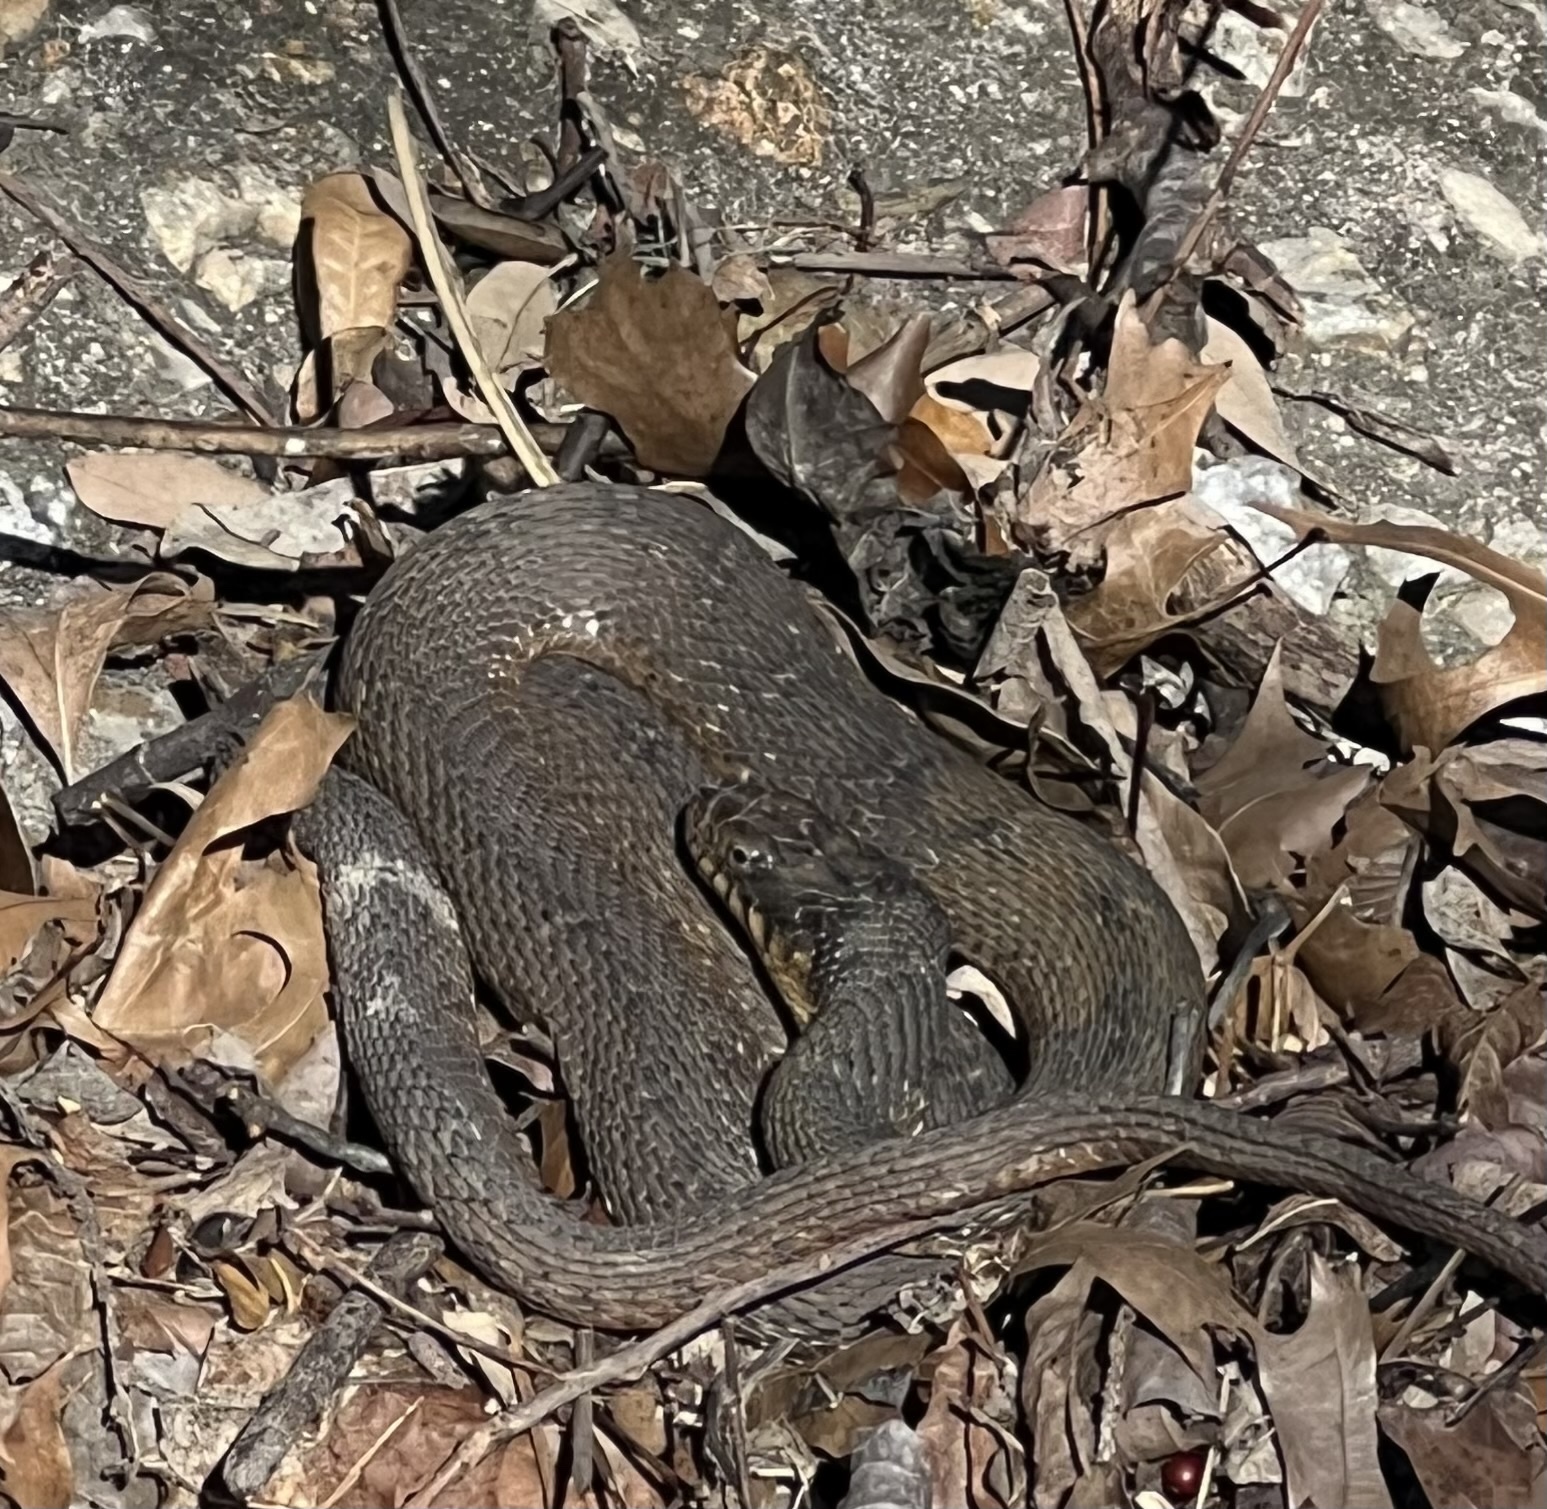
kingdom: Animalia
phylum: Chordata
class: Squamata
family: Colubridae
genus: Nerodia
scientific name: Nerodia erythrogaster
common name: Plainbelly water snake
